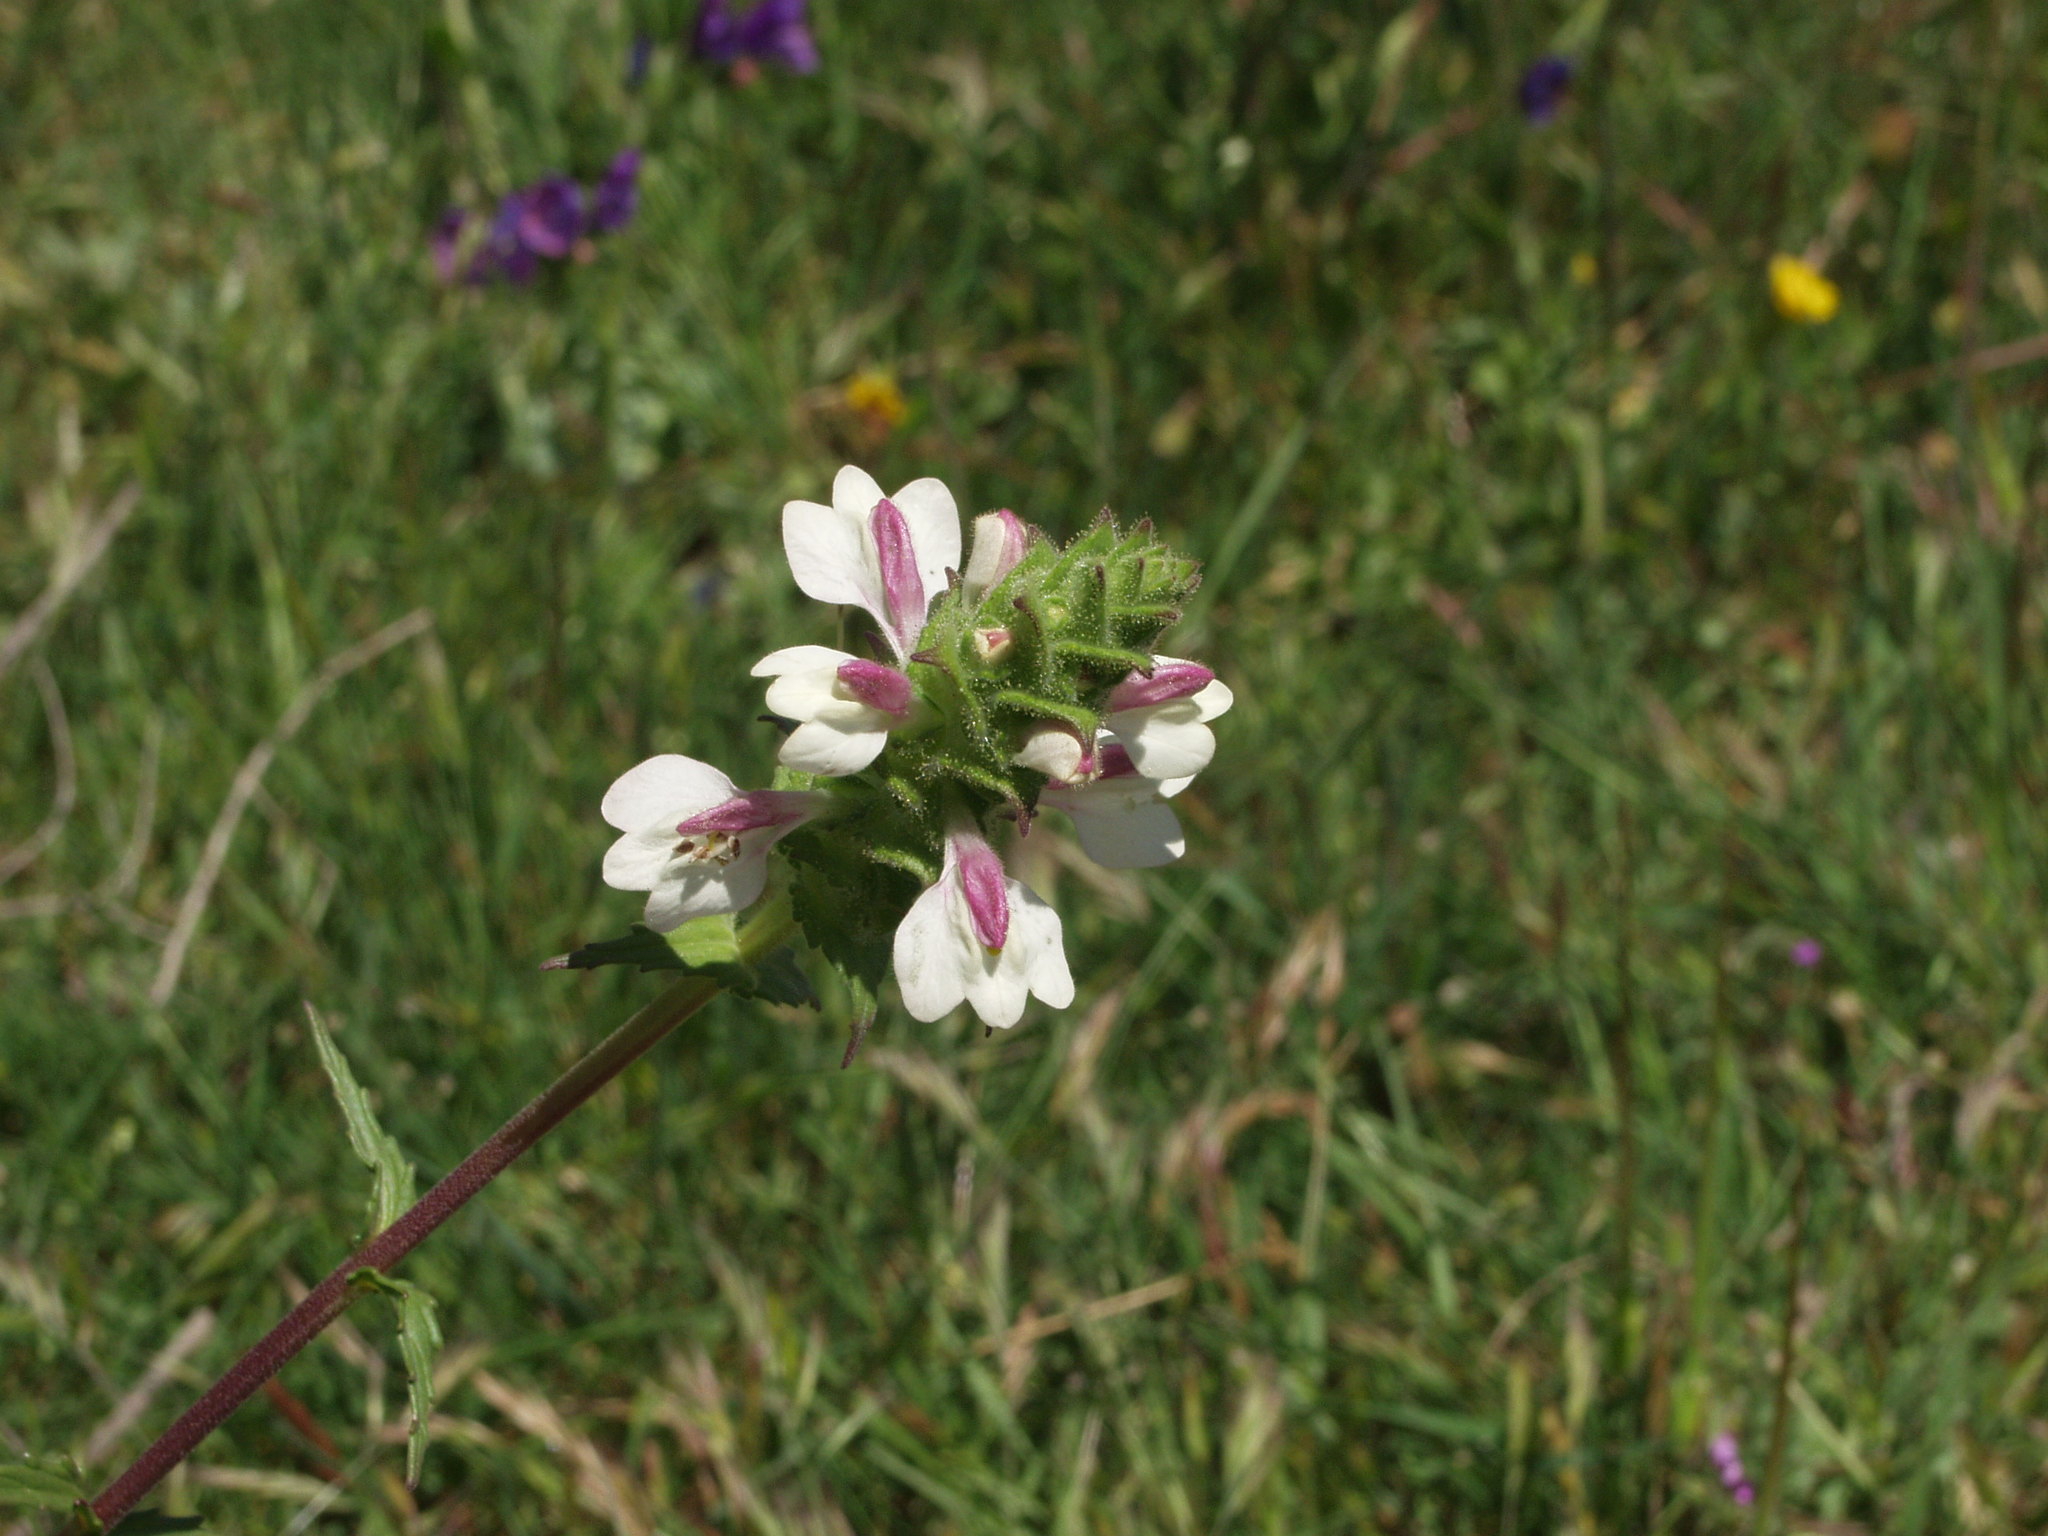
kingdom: Plantae
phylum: Tracheophyta
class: Magnoliopsida
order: Lamiales
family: Orobanchaceae
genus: Bellardia
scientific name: Bellardia trixago
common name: Mediterranean lineseed
